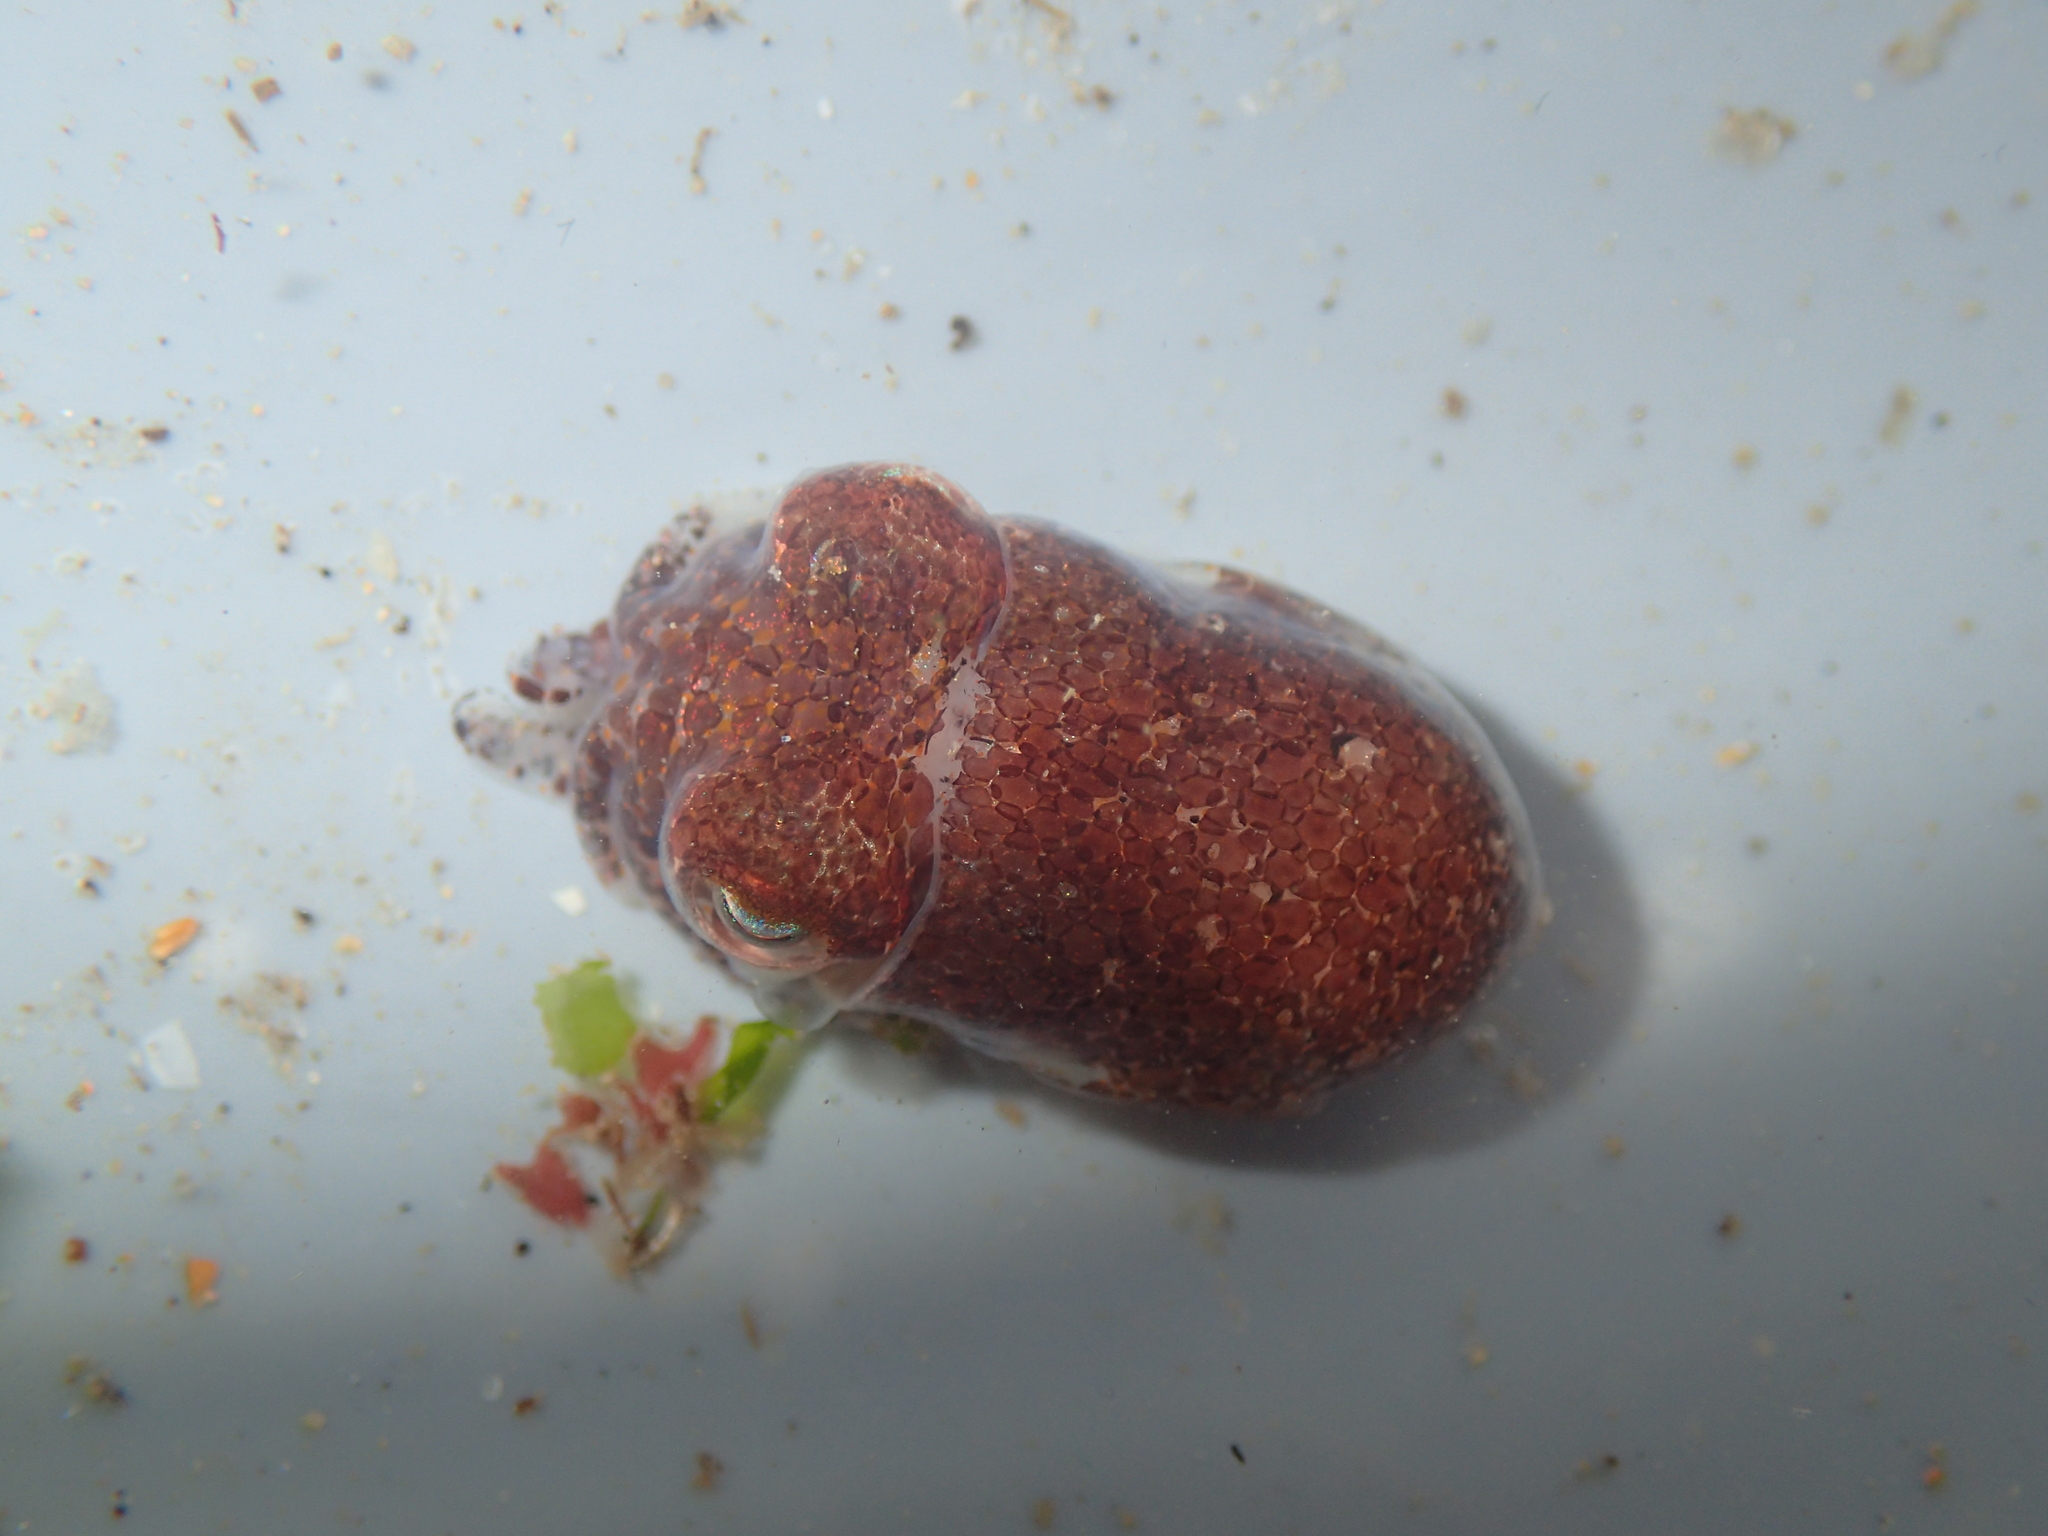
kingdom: Animalia
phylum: Mollusca
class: Cephalopoda
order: Sepiida
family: Sepiolidae
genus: Sepiola
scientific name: Sepiola atlantica
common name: Atlantic bobtail squid
